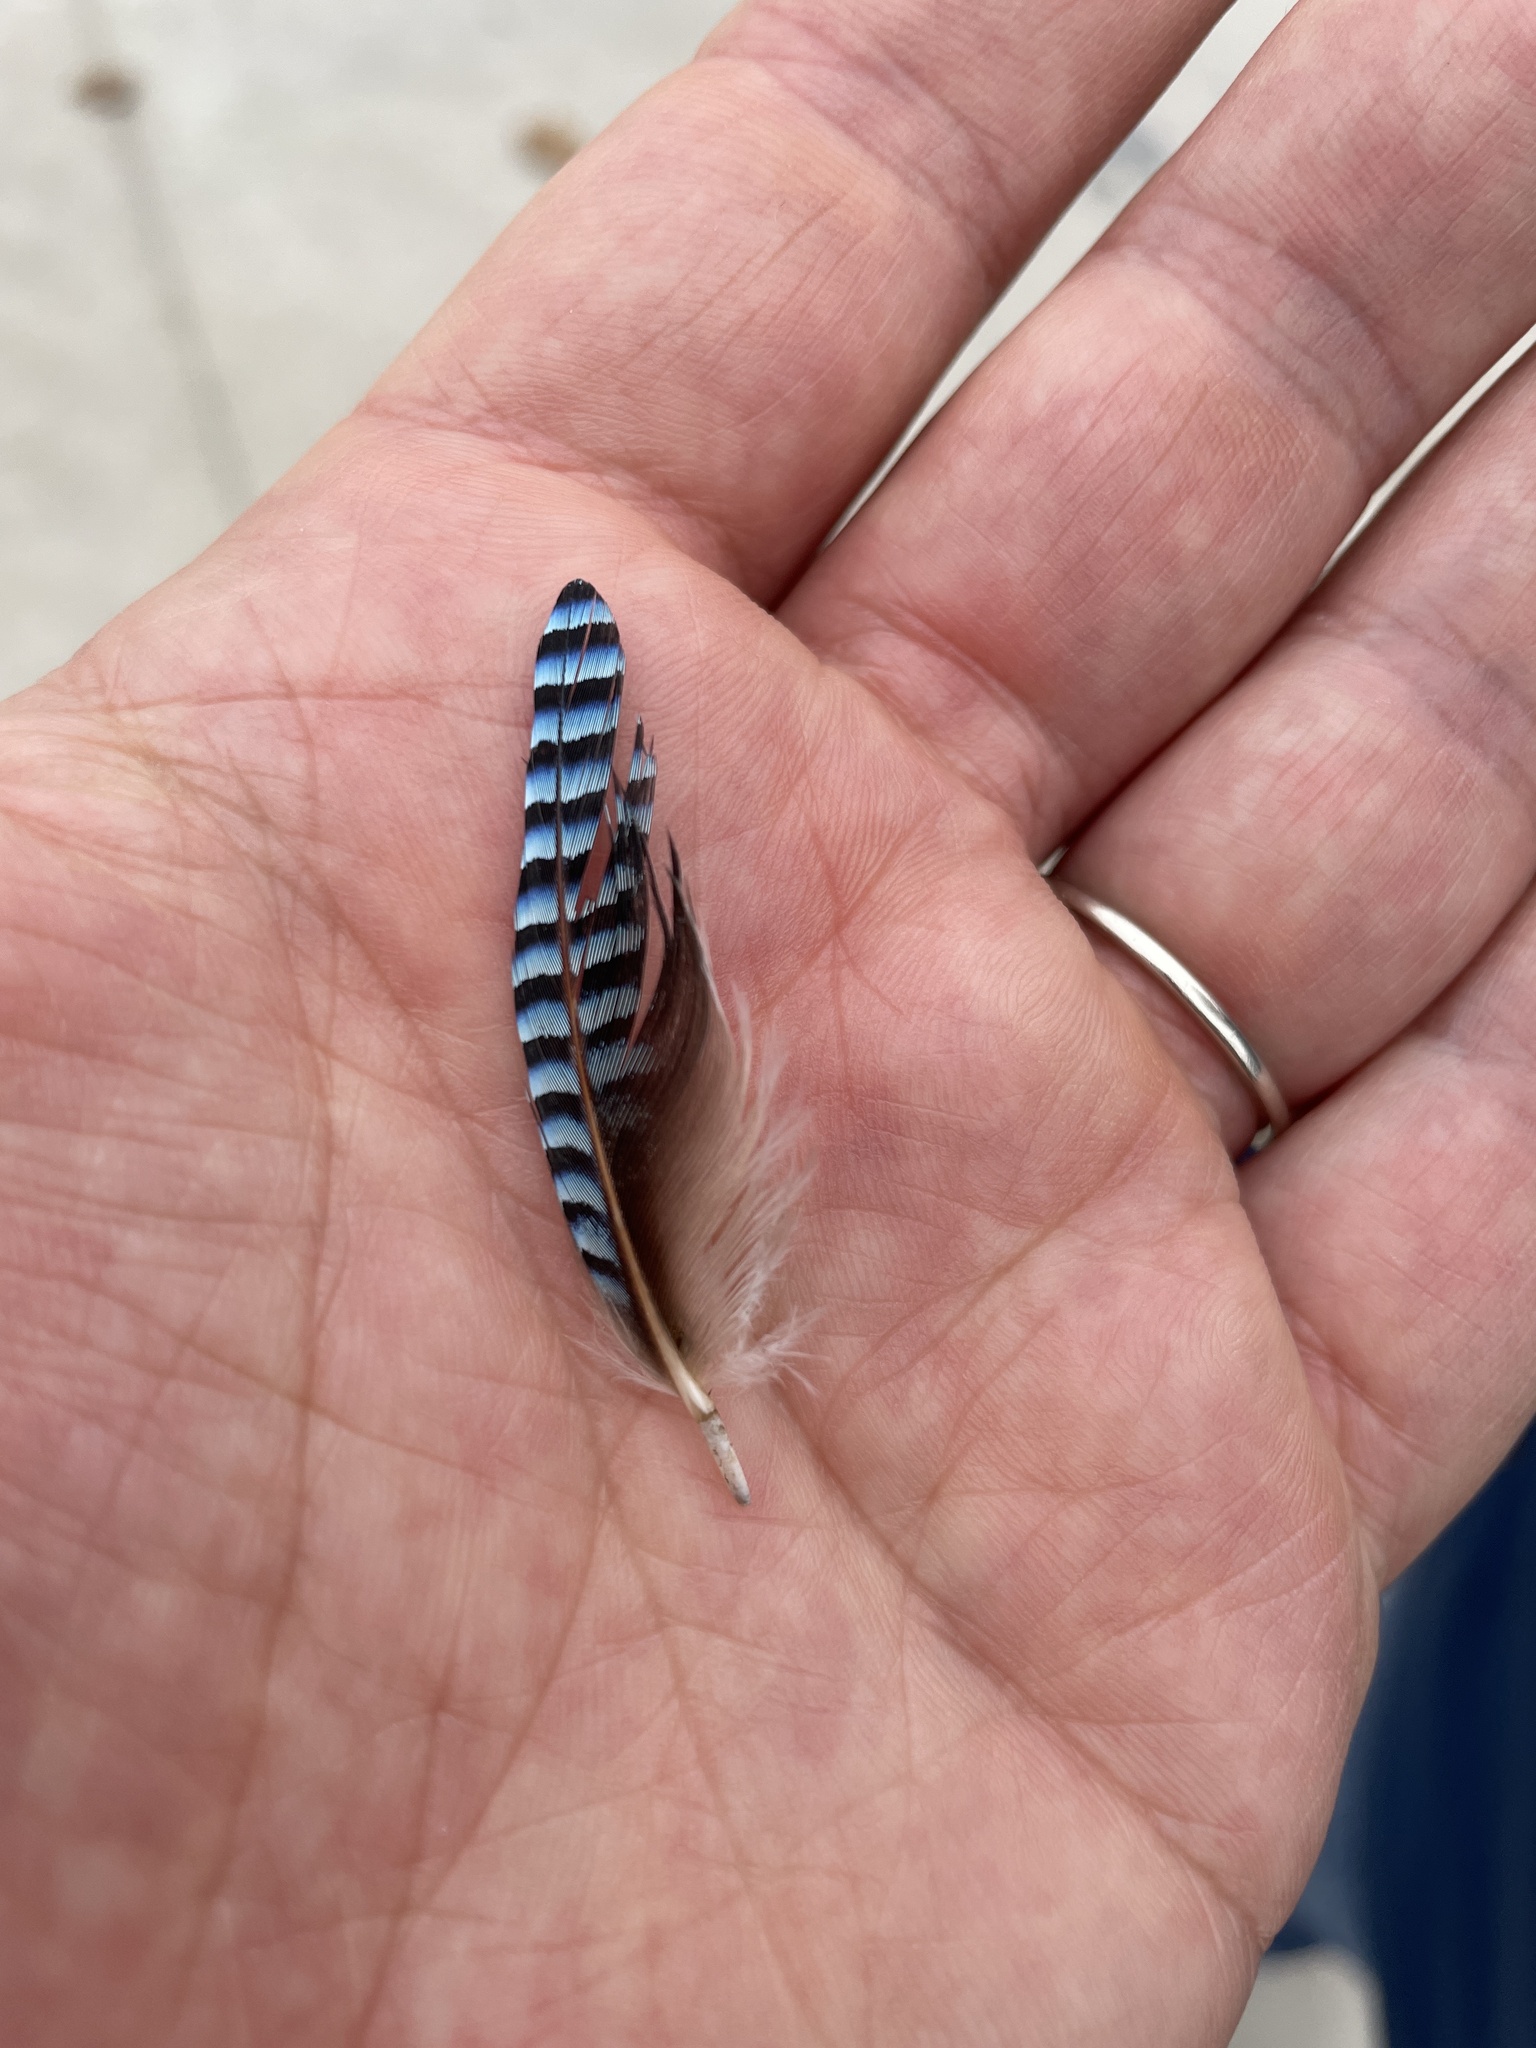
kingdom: Animalia
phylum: Chordata
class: Aves
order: Passeriformes
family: Corvidae
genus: Garrulus
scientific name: Garrulus glandarius
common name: Eurasian jay
